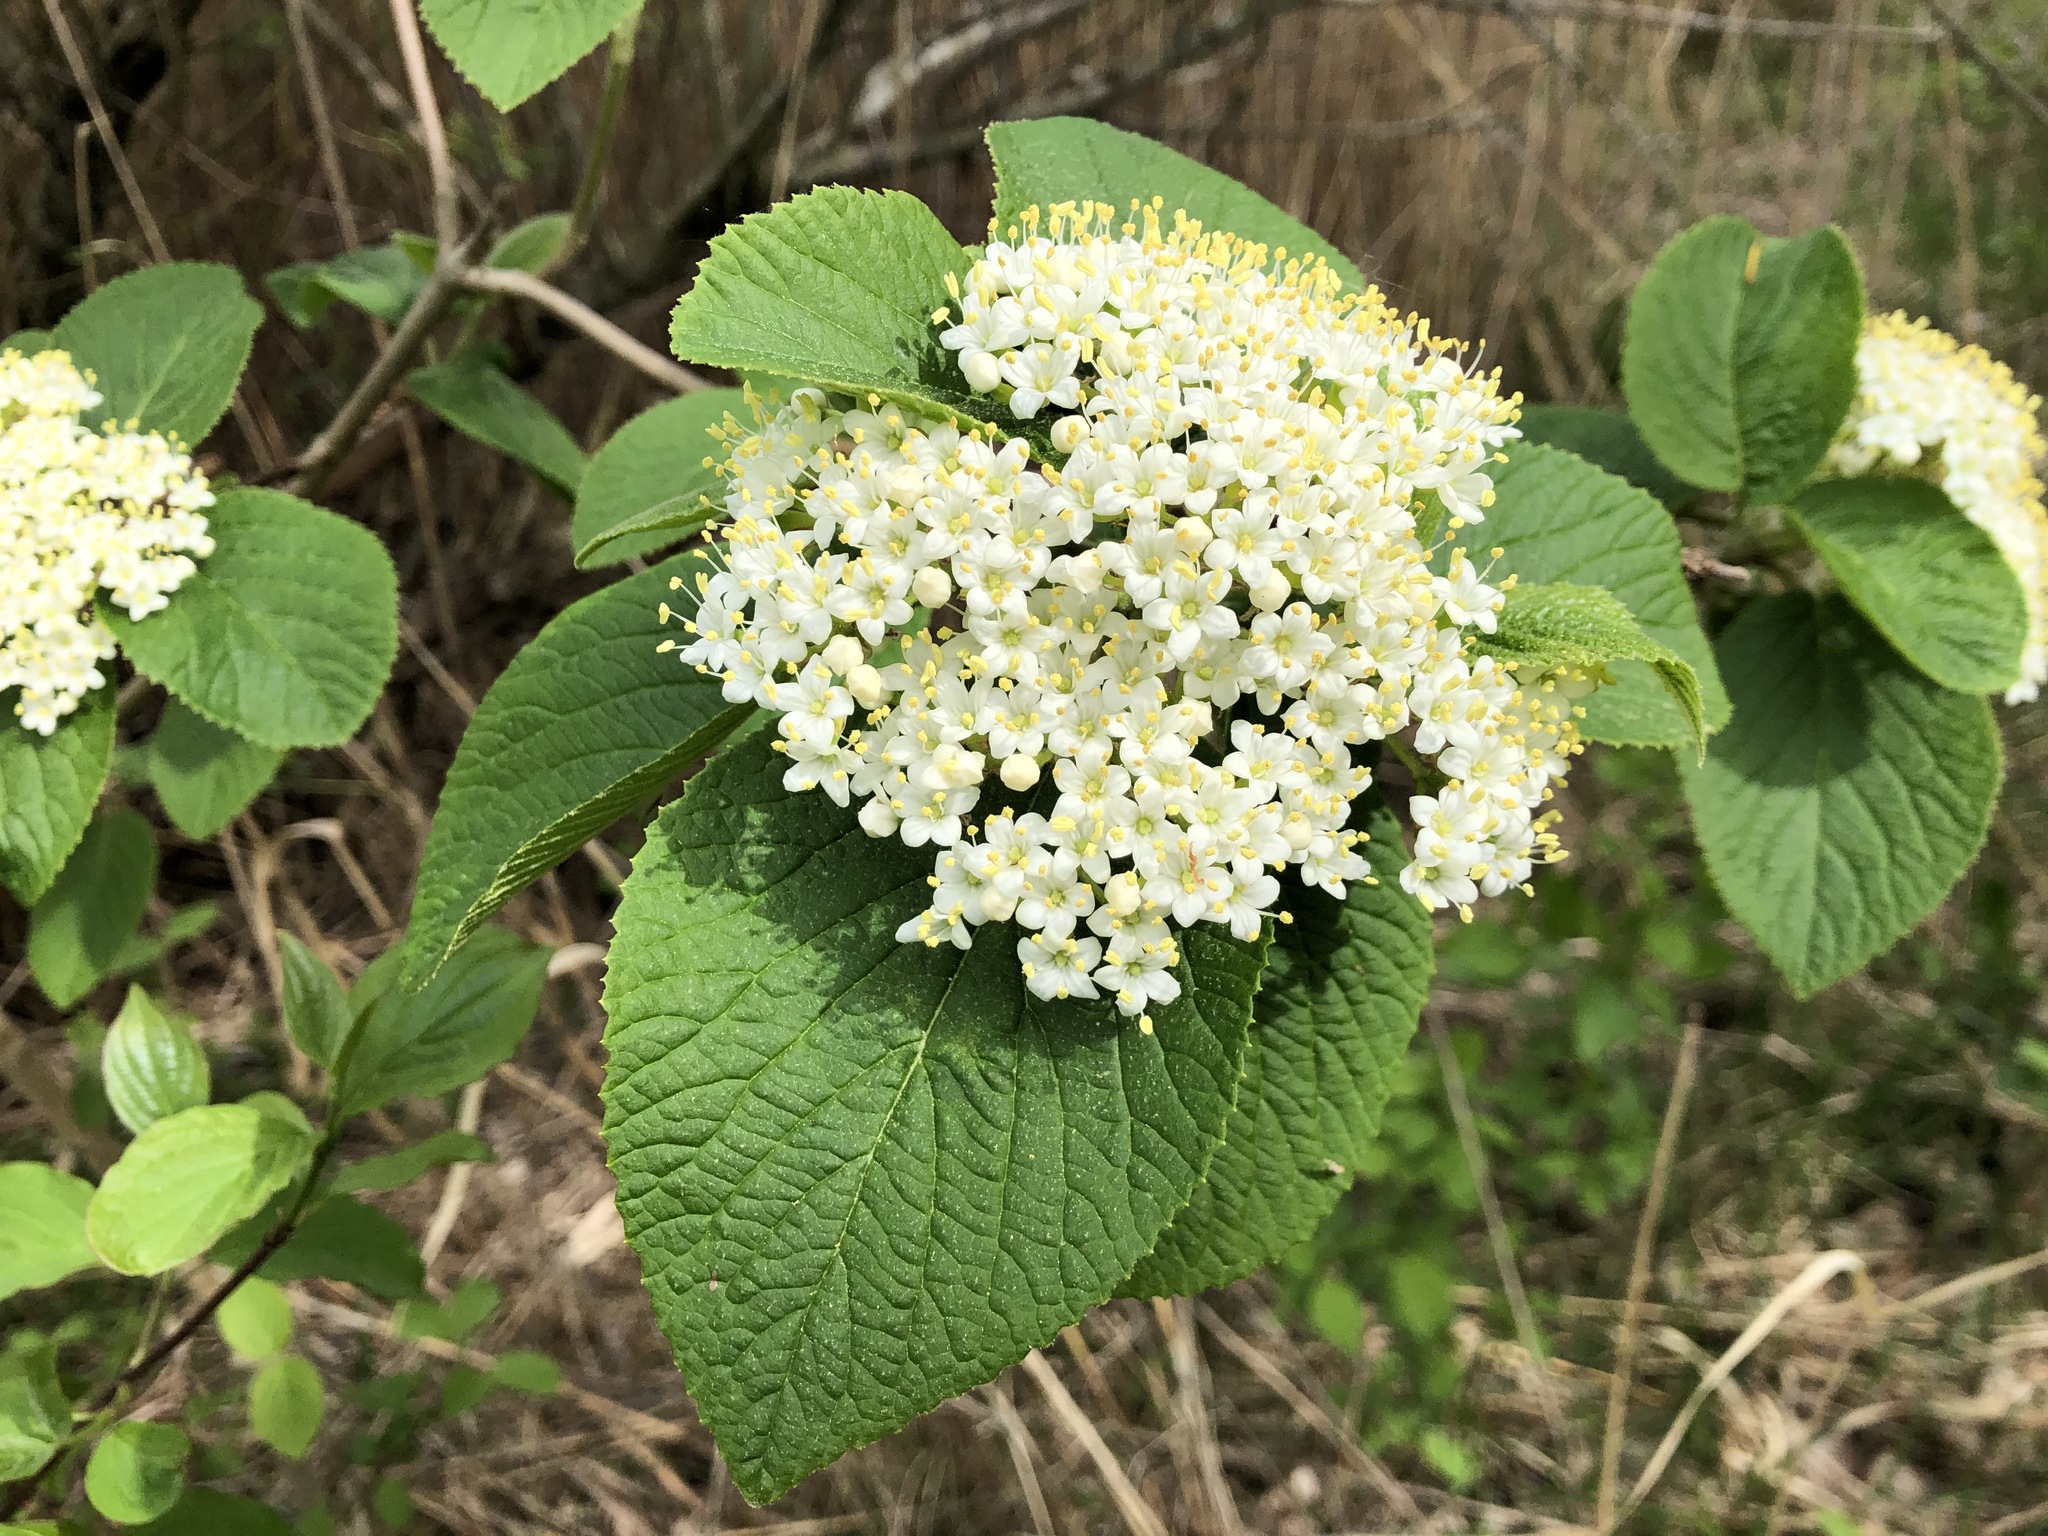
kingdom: Plantae
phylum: Tracheophyta
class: Magnoliopsida
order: Dipsacales
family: Viburnaceae
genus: Viburnum
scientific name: Viburnum lantana
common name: Wayfaring tree
